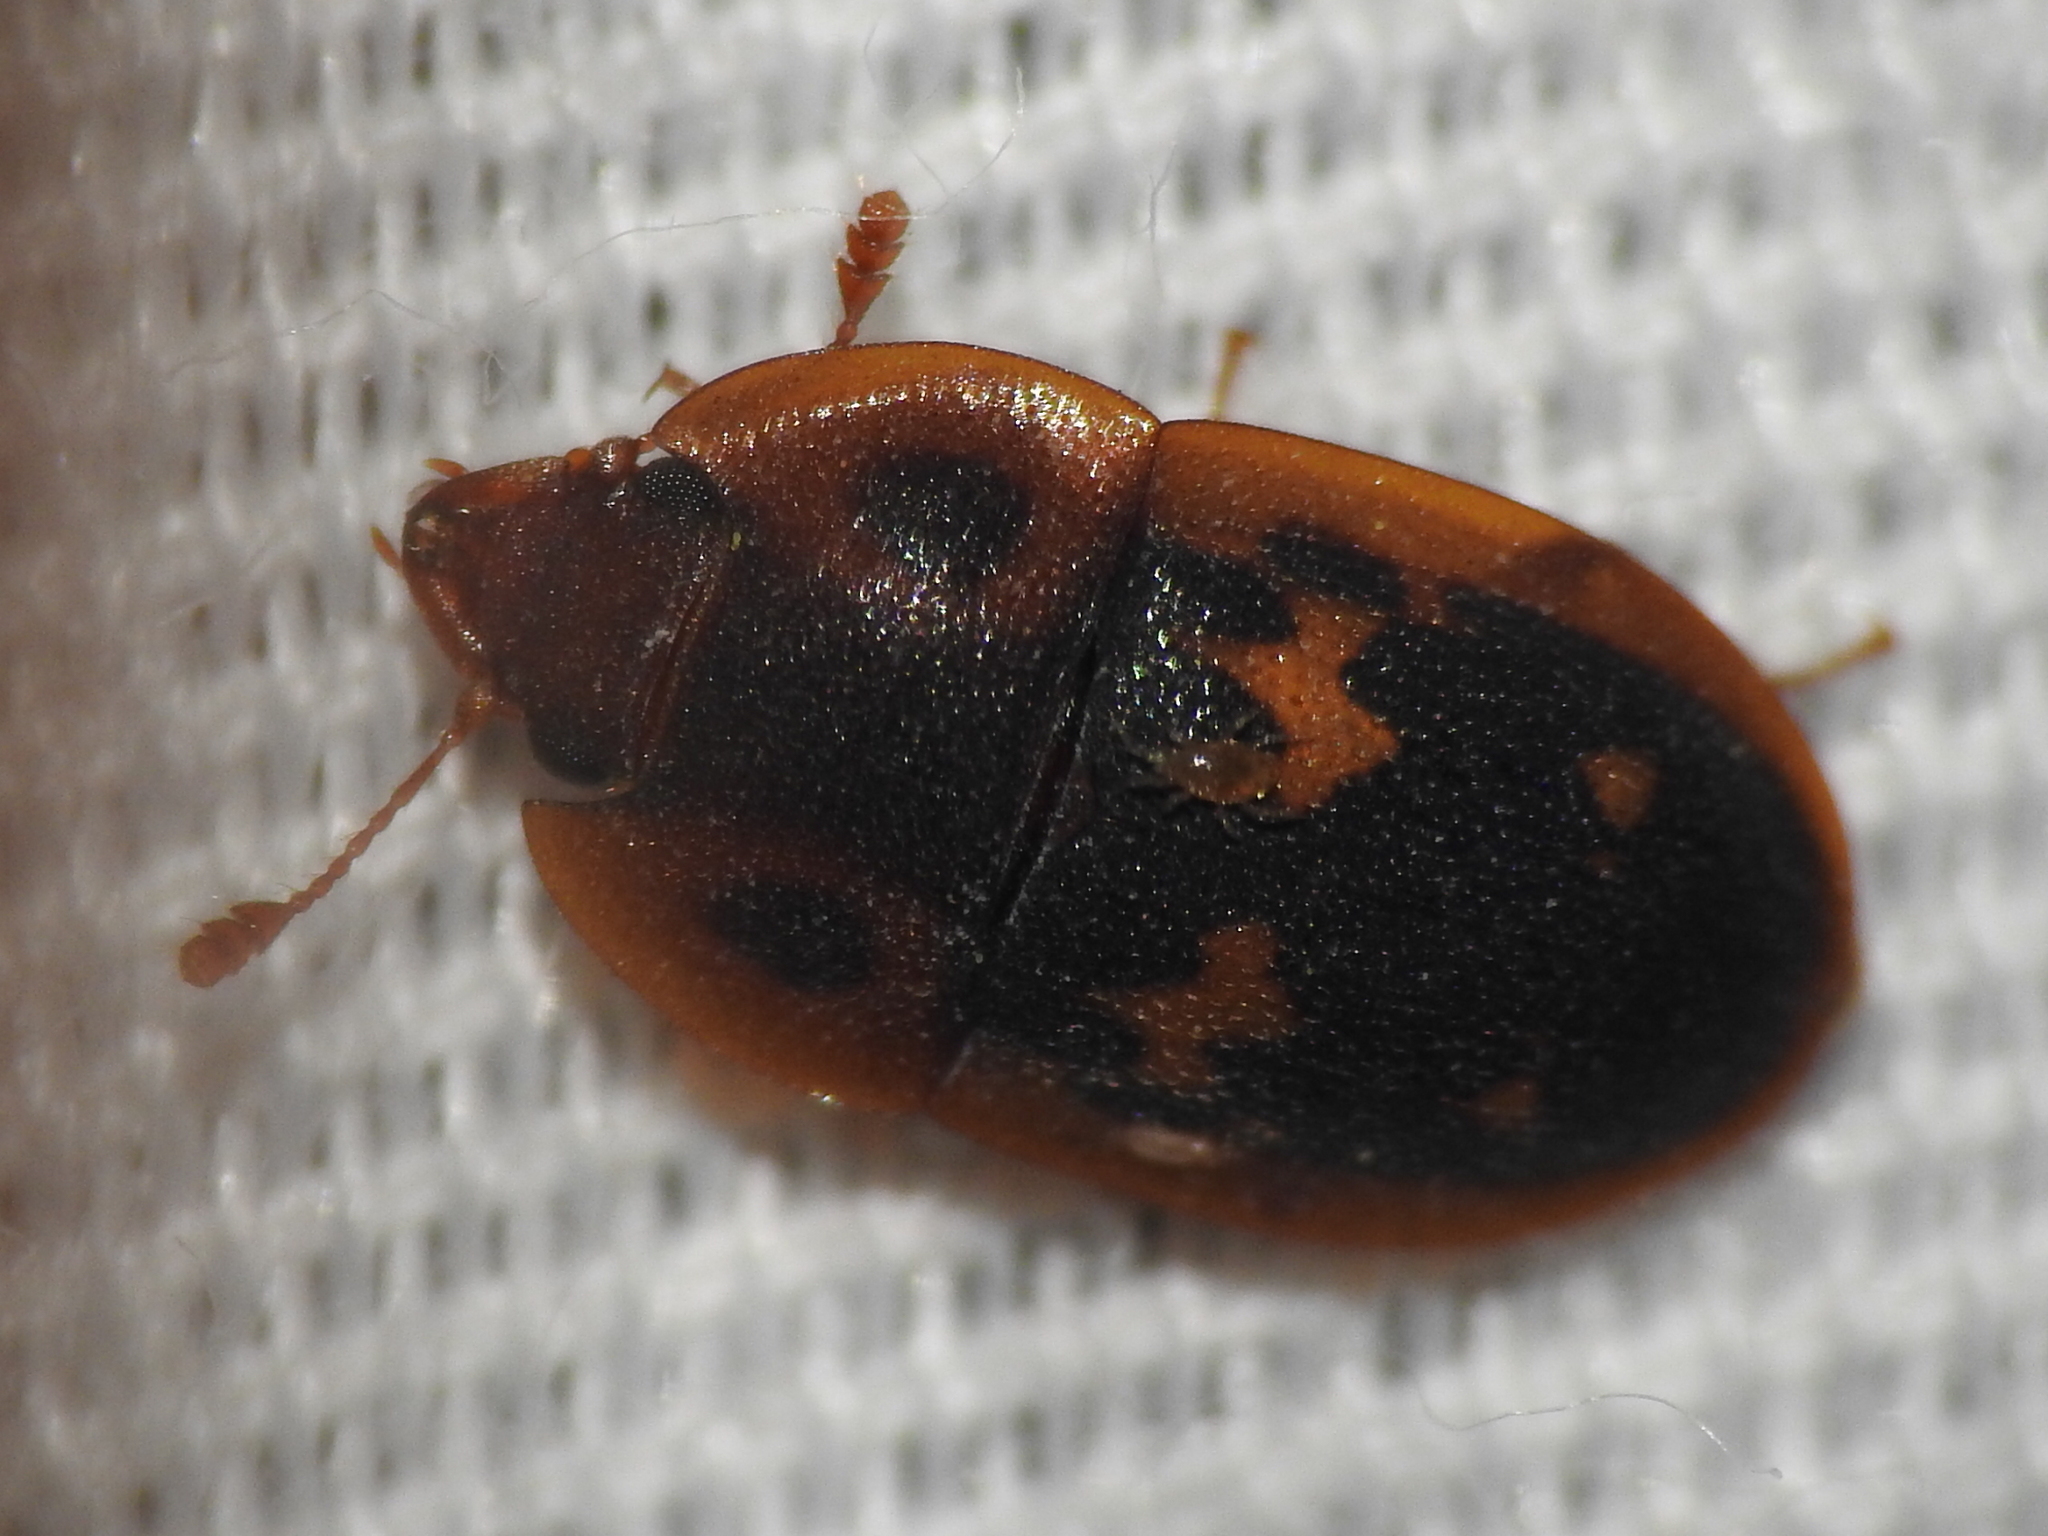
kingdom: Animalia
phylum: Arthropoda
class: Insecta
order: Coleoptera
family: Nitidulidae
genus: Prometopia
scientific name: Prometopia sexmaculata
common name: Six-spotted sap-feeding beetle
